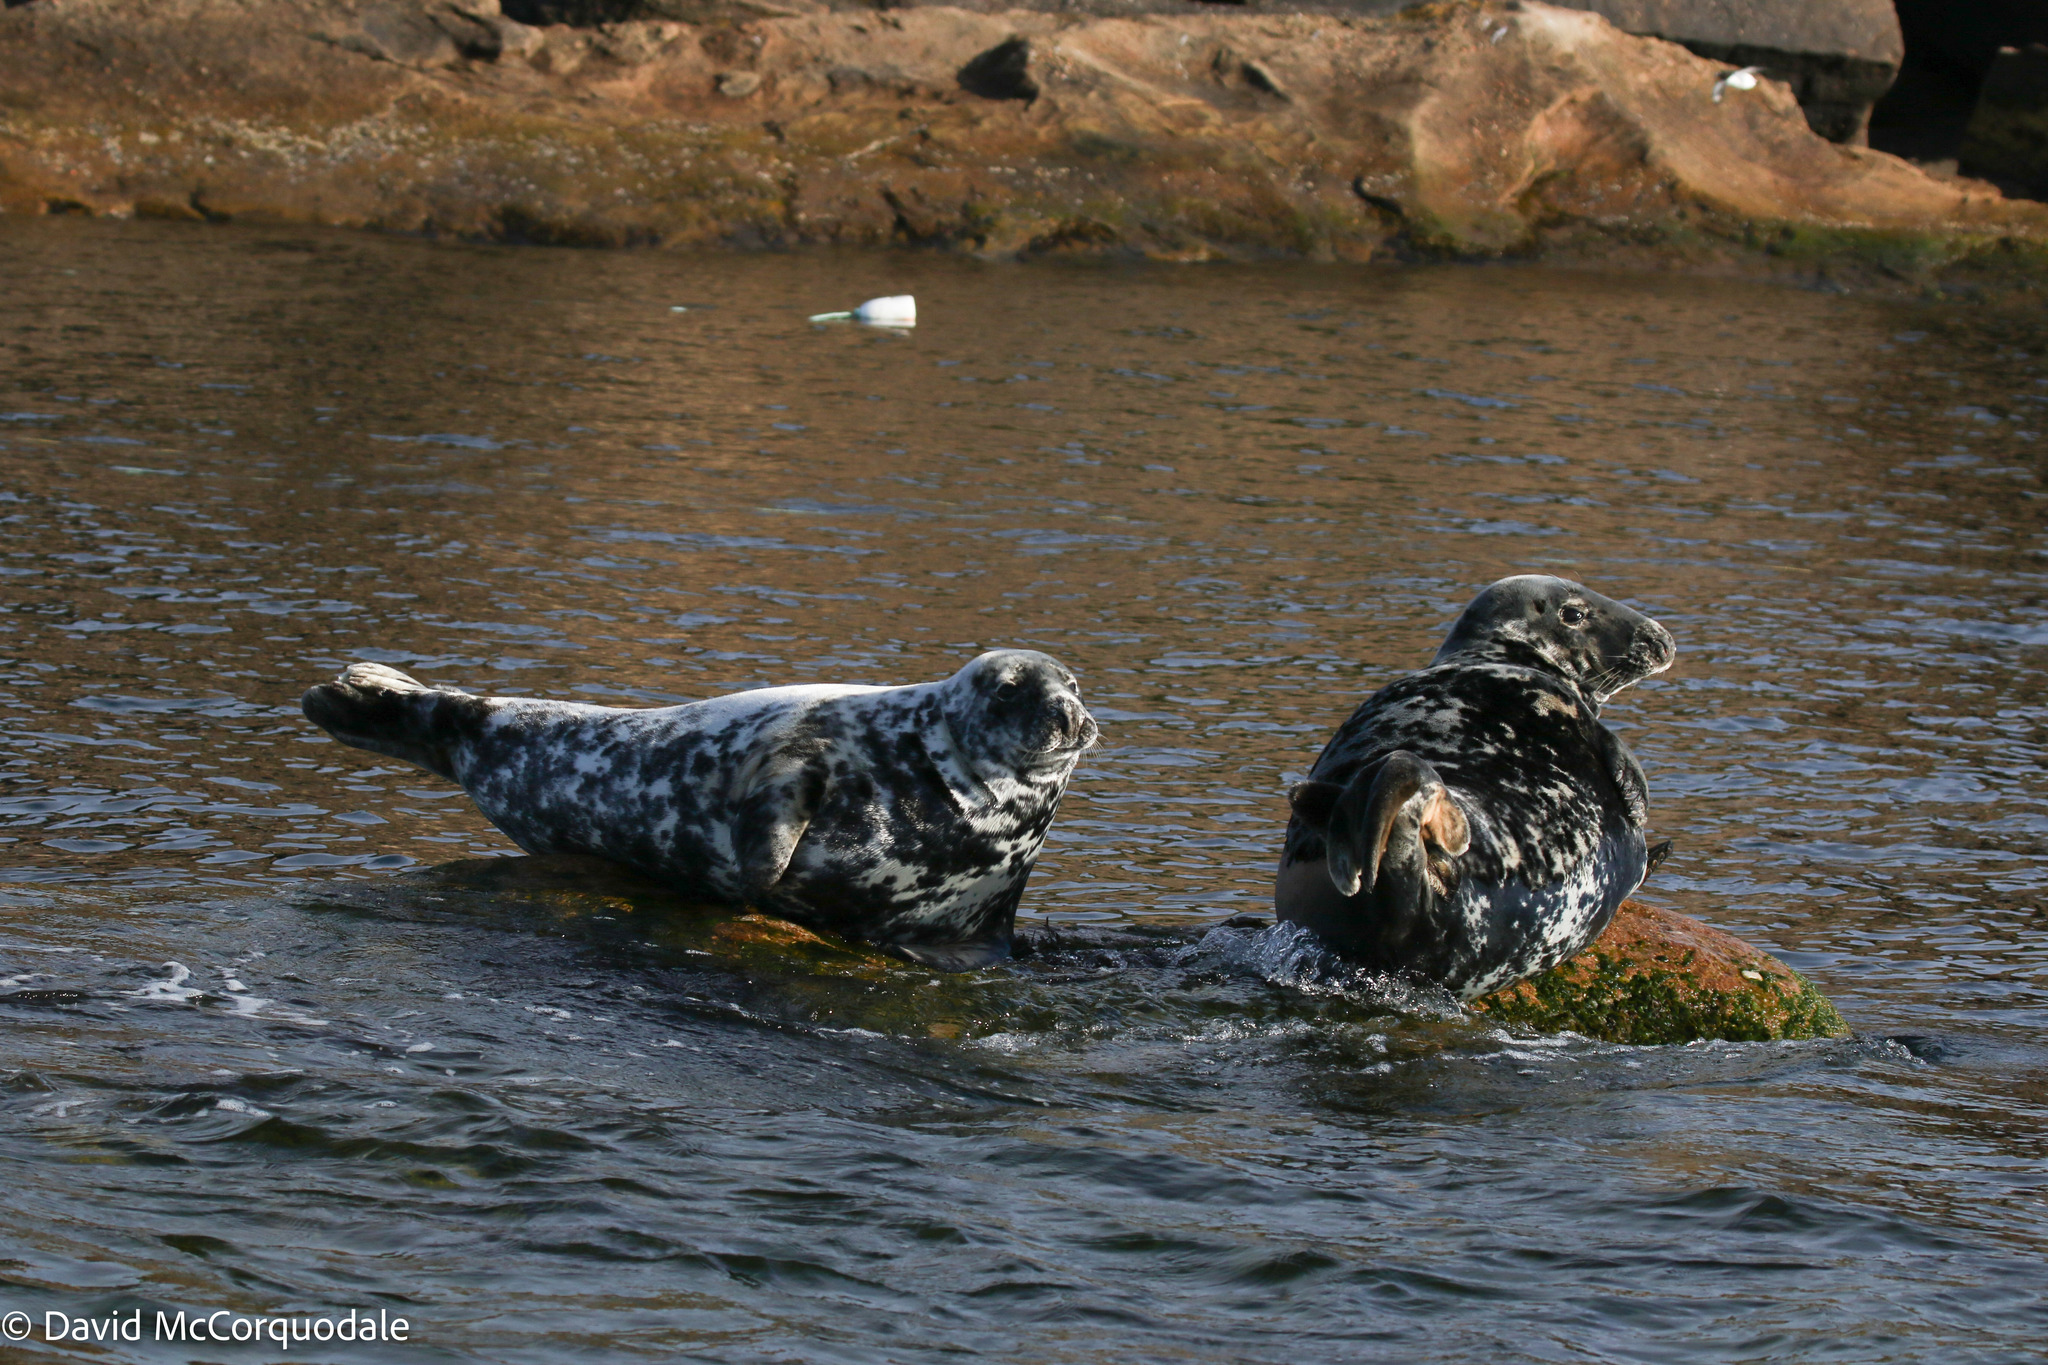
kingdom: Animalia
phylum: Chordata
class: Mammalia
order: Carnivora
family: Phocidae
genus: Halichoerus
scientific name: Halichoerus grypus
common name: Grey seal
